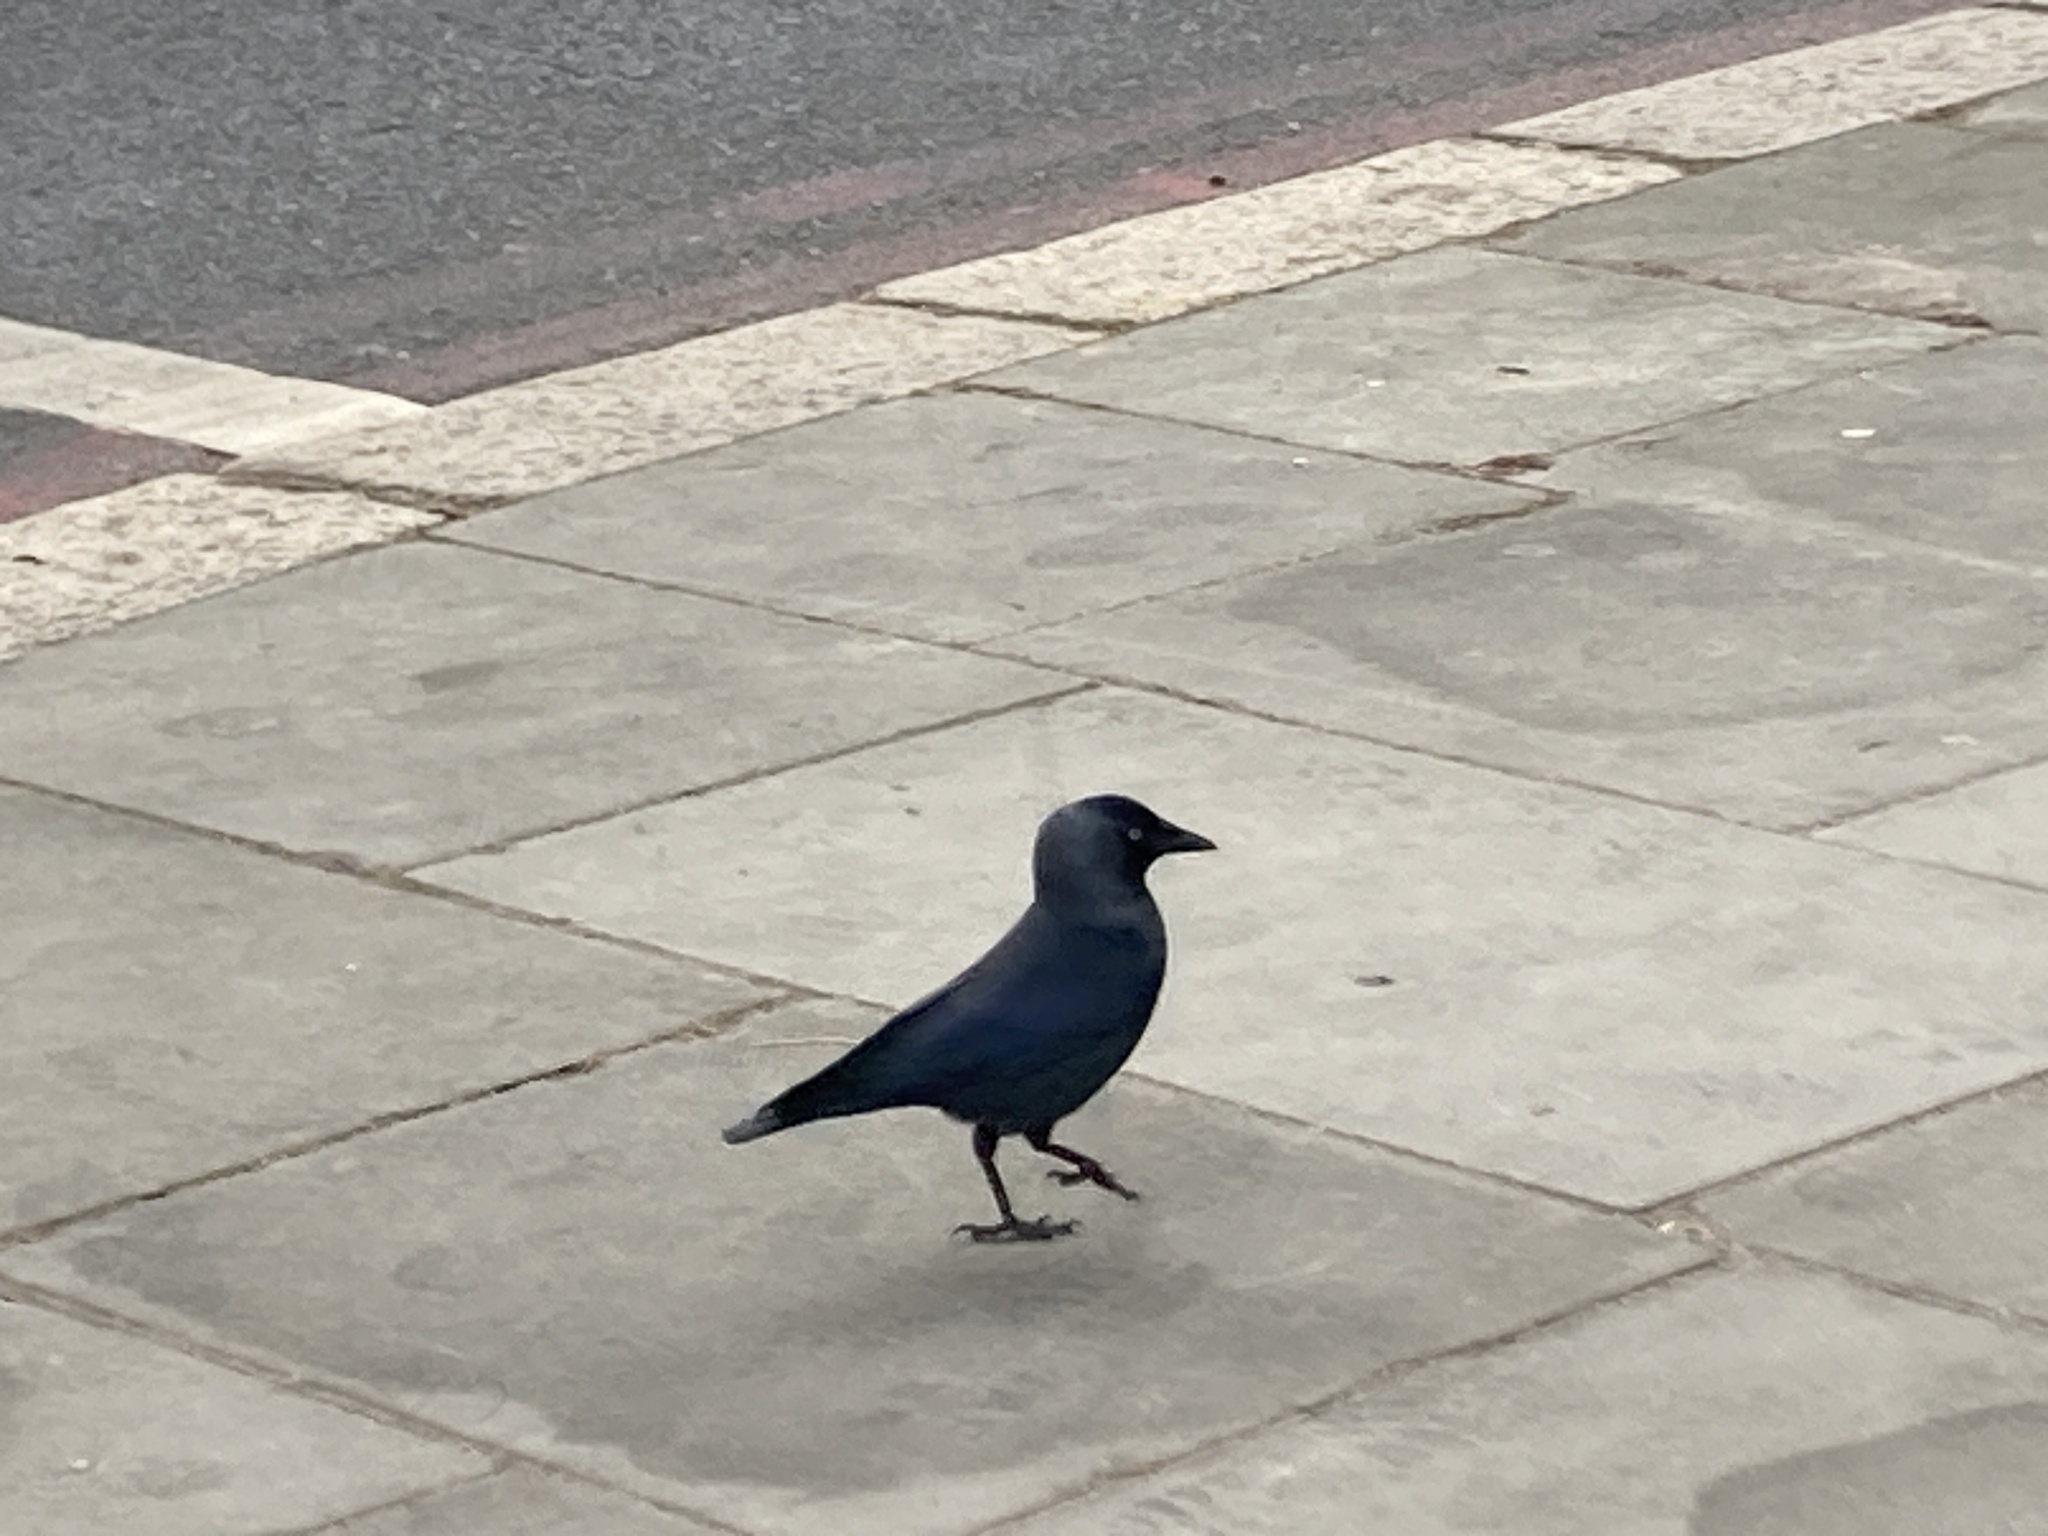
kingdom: Animalia
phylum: Chordata
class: Aves
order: Passeriformes
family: Corvidae
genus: Coloeus
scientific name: Coloeus monedula
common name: Western jackdaw
